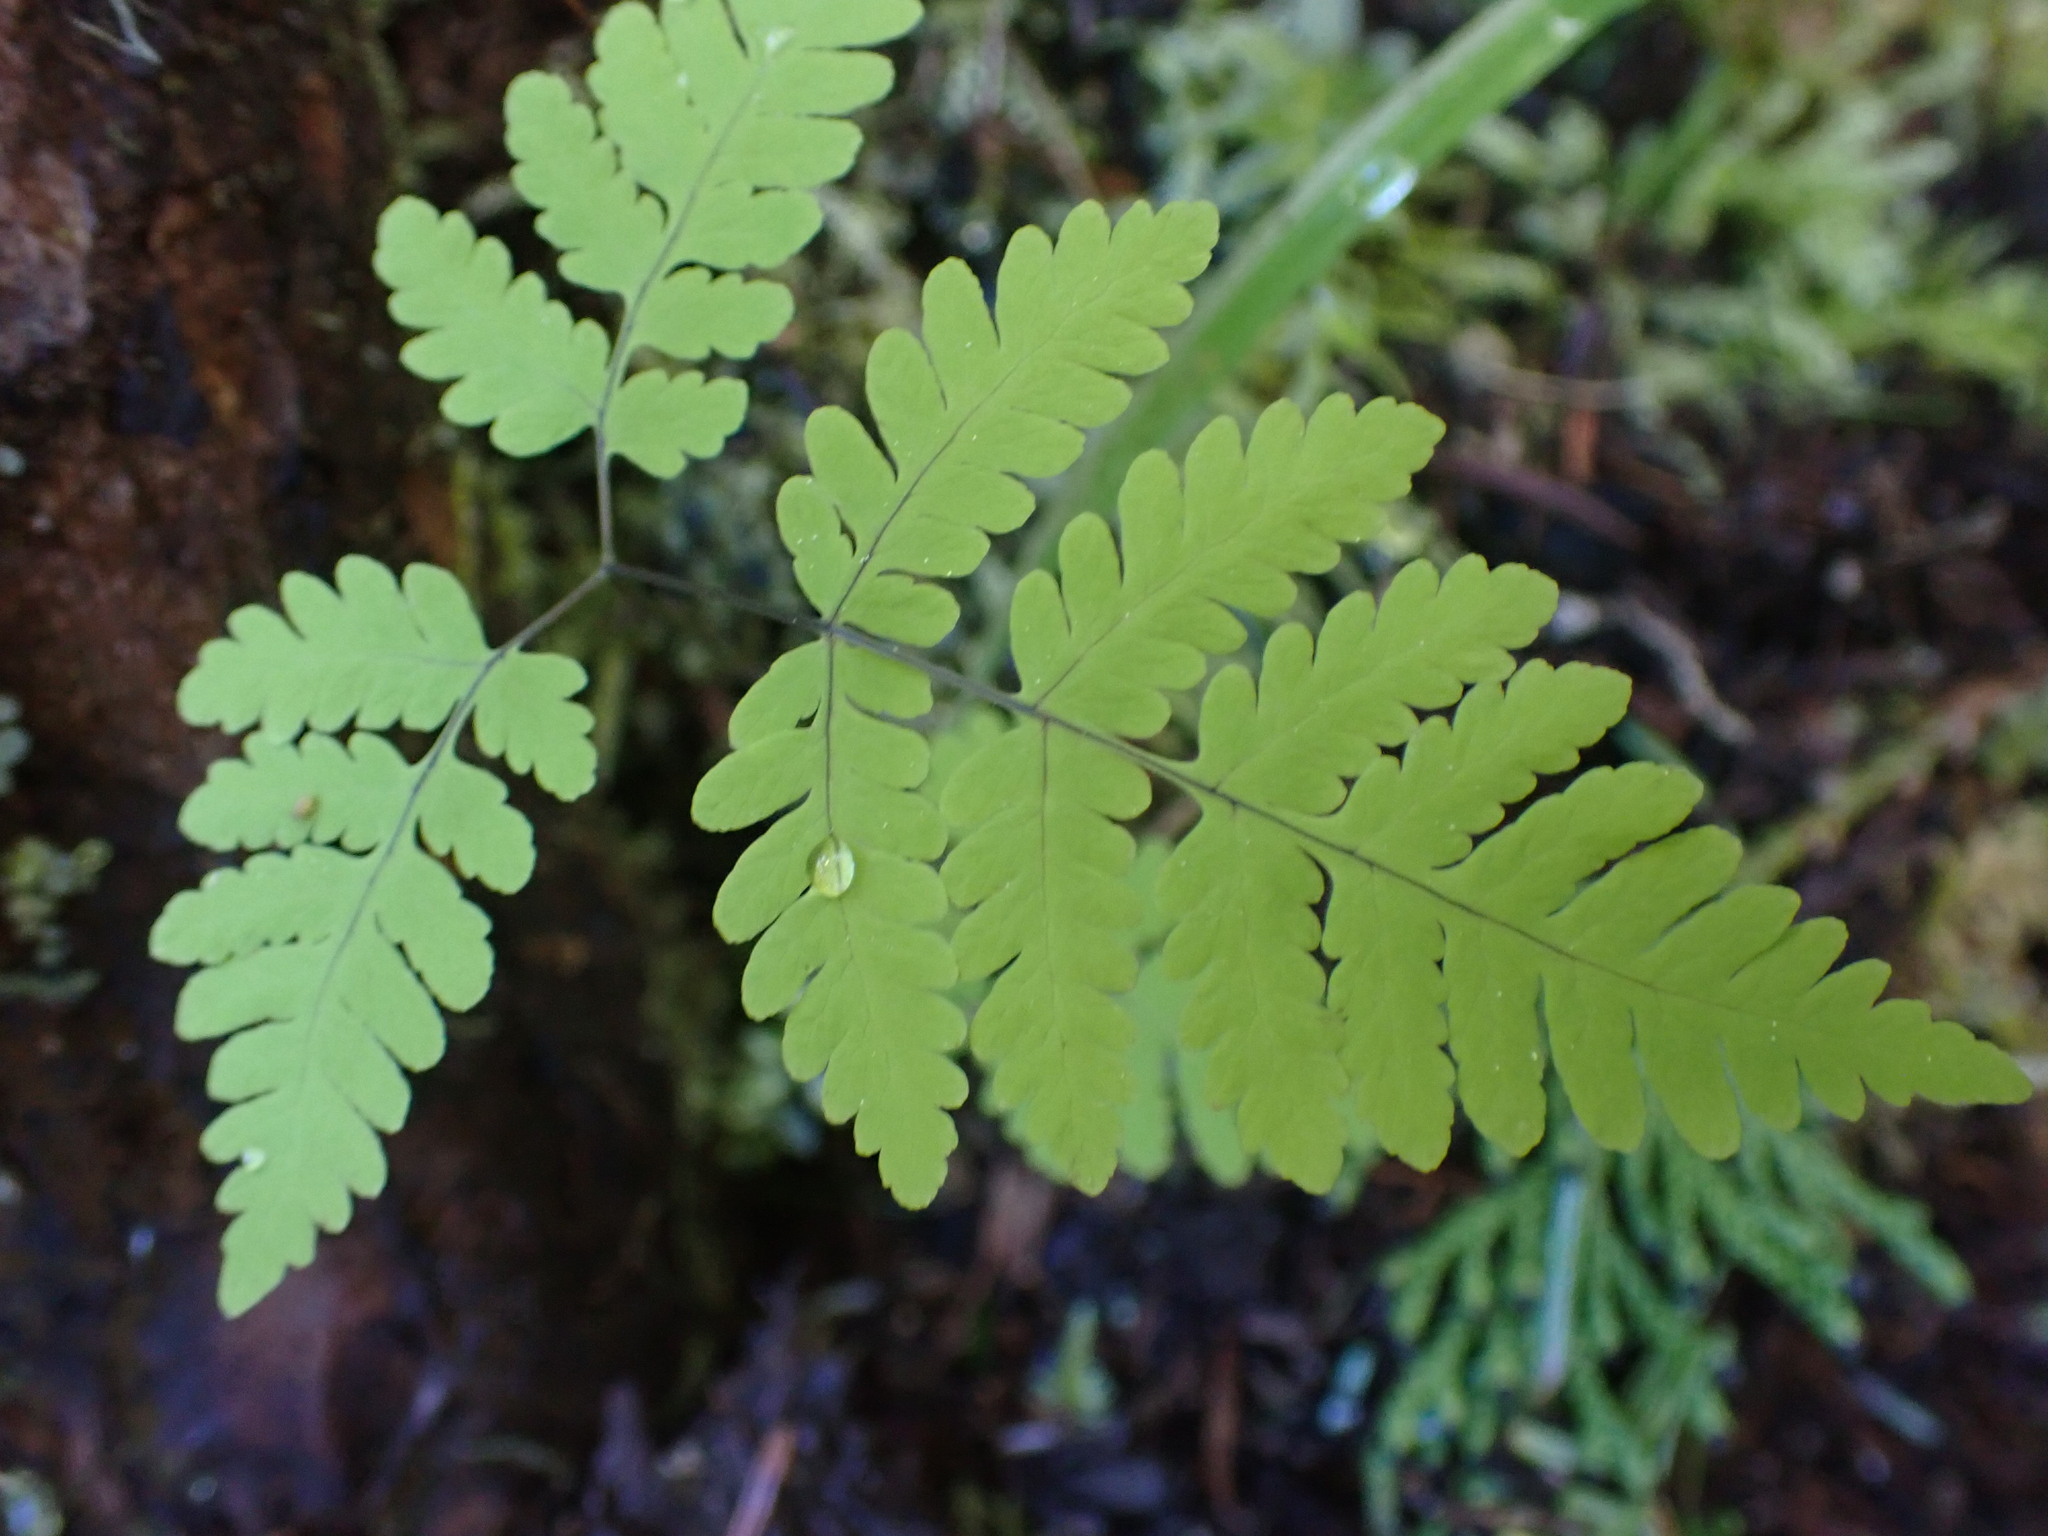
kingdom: Plantae
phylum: Tracheophyta
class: Polypodiopsida
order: Polypodiales
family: Cystopteridaceae
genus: Gymnocarpium
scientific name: Gymnocarpium disjunctum
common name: Western oak fern
